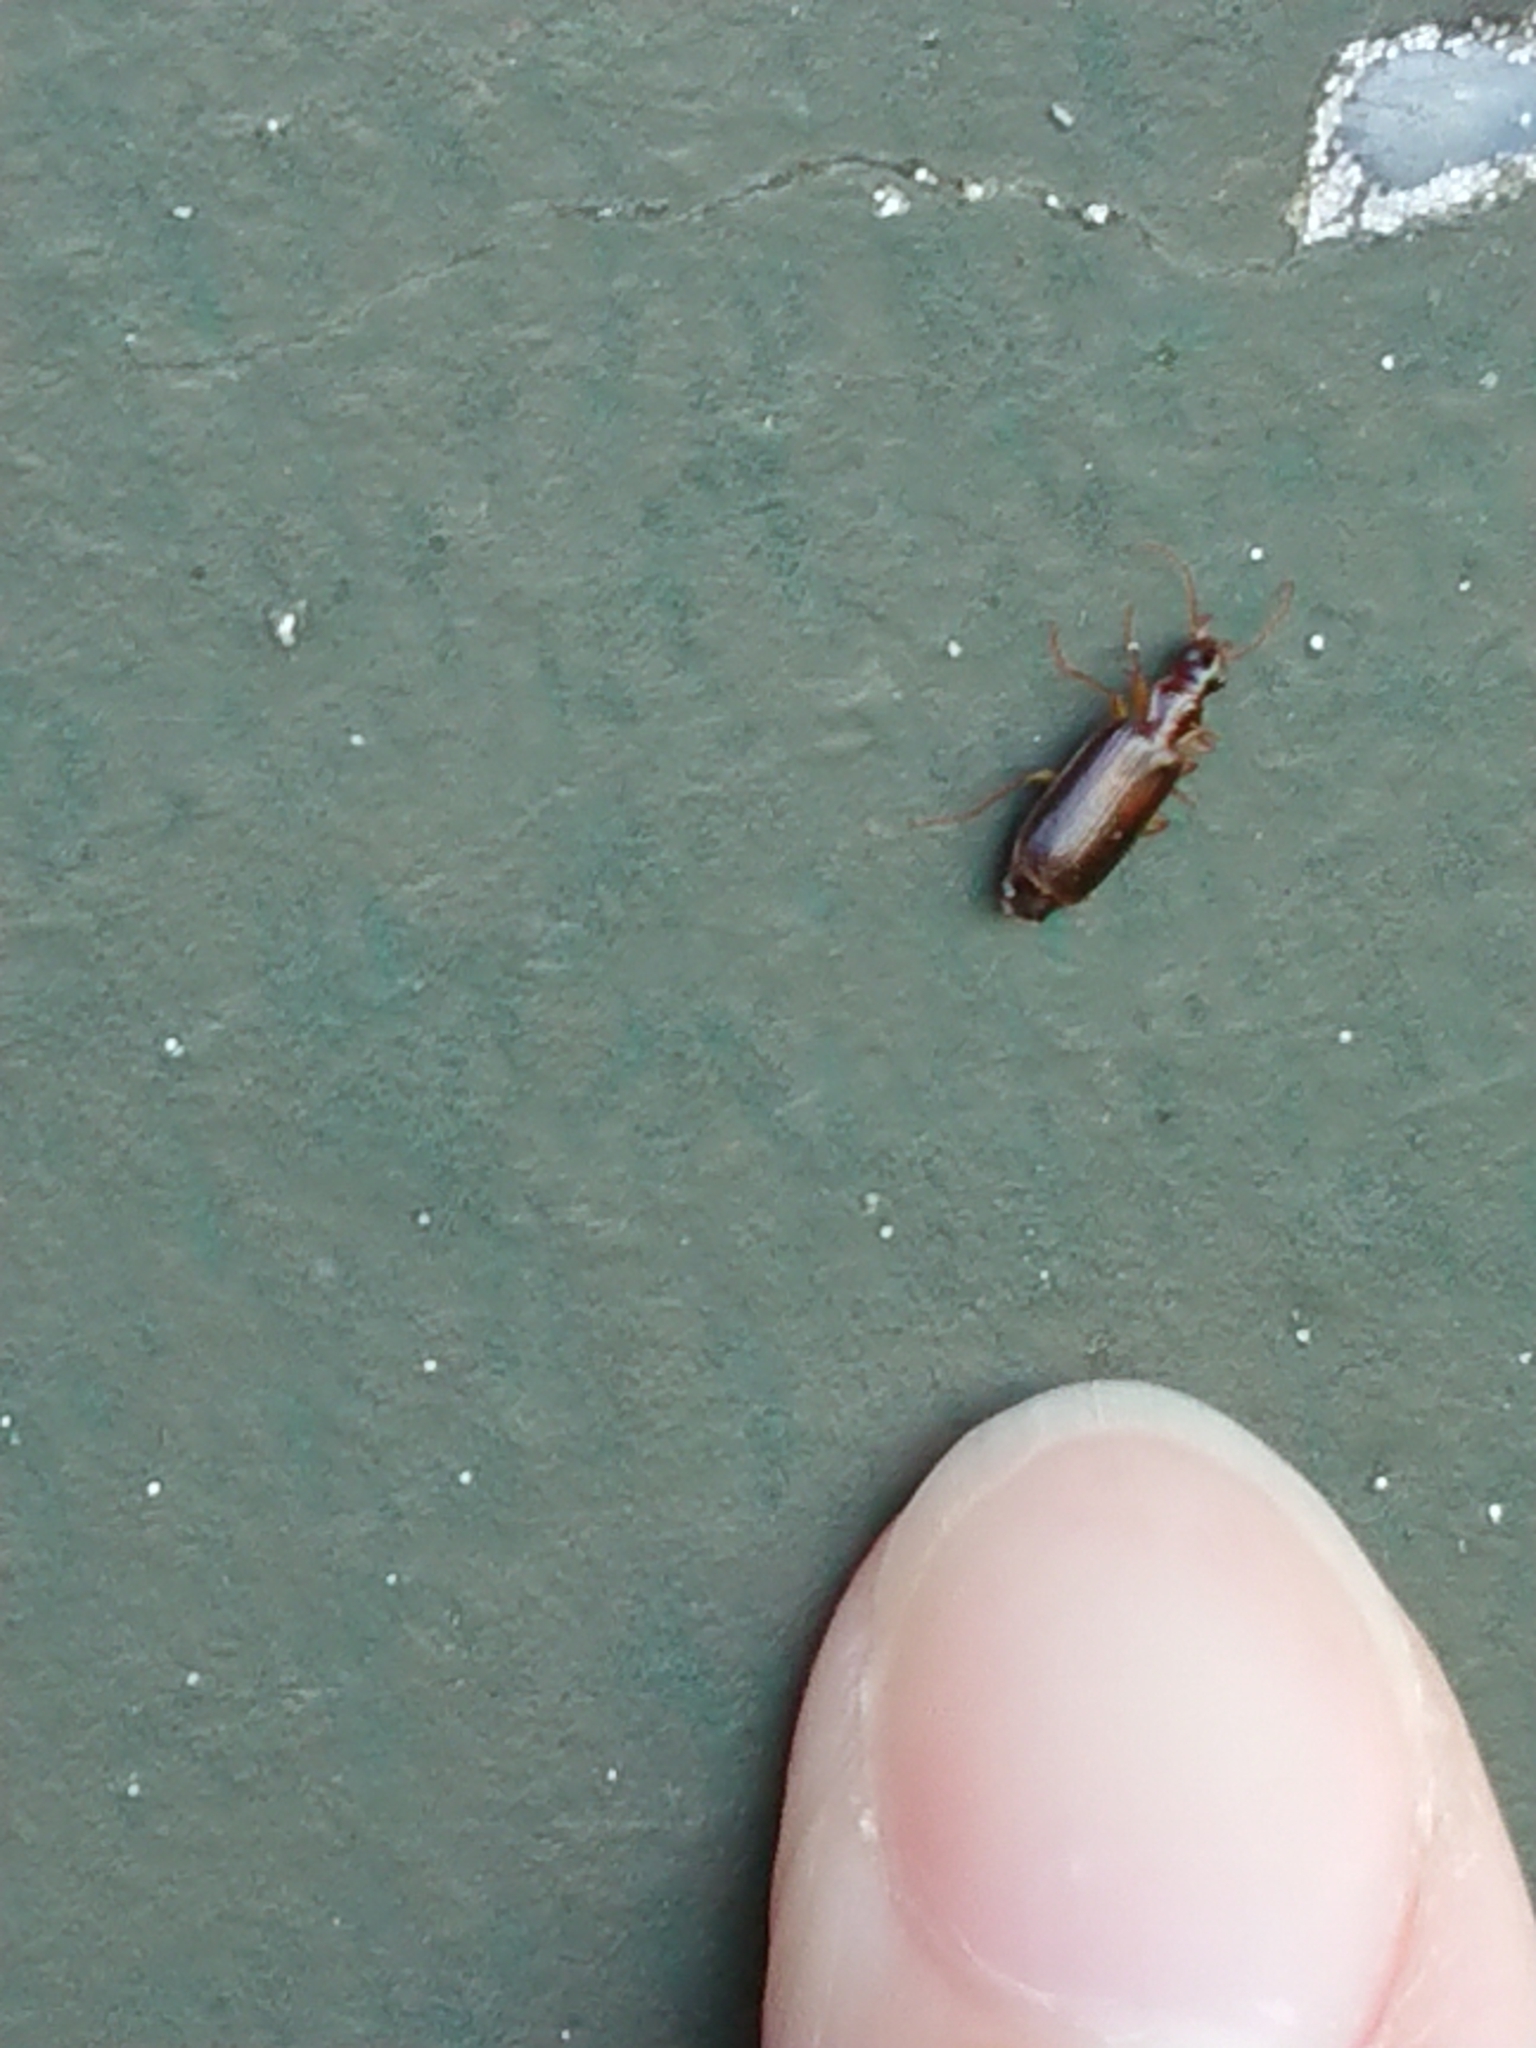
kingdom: Animalia
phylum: Arthropoda
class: Insecta
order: Coleoptera
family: Carabidae
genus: Dromius
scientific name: Dromius meridionalis
